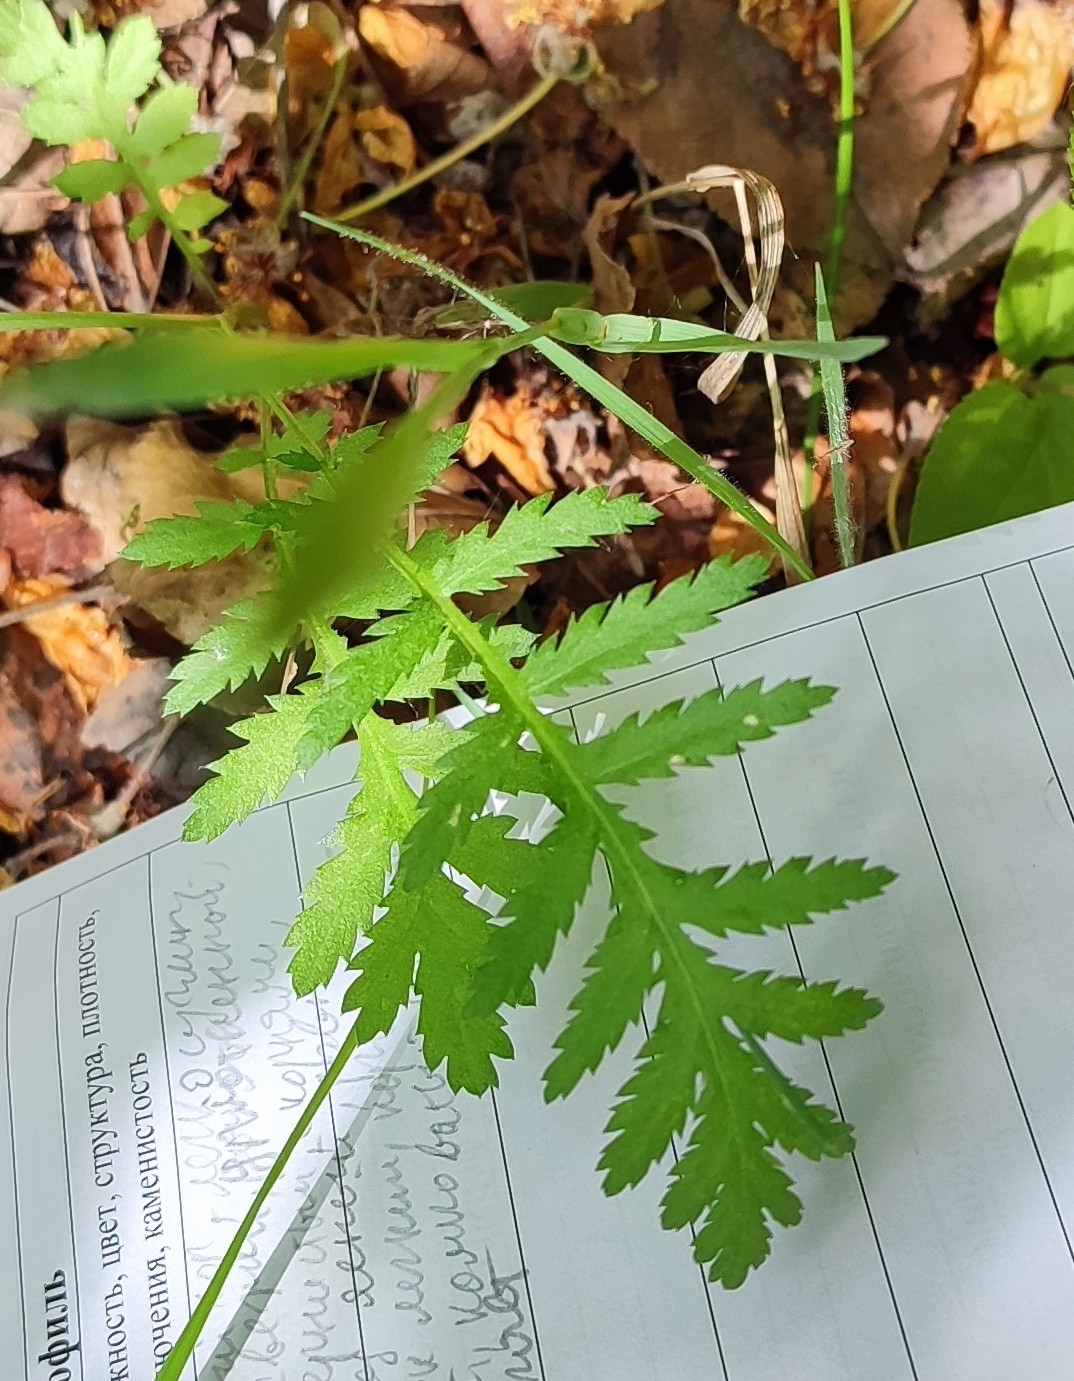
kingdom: Plantae
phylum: Tracheophyta
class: Magnoliopsida
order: Asterales
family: Asteraceae
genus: Tanacetum
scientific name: Tanacetum vulgare
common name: Common tansy
